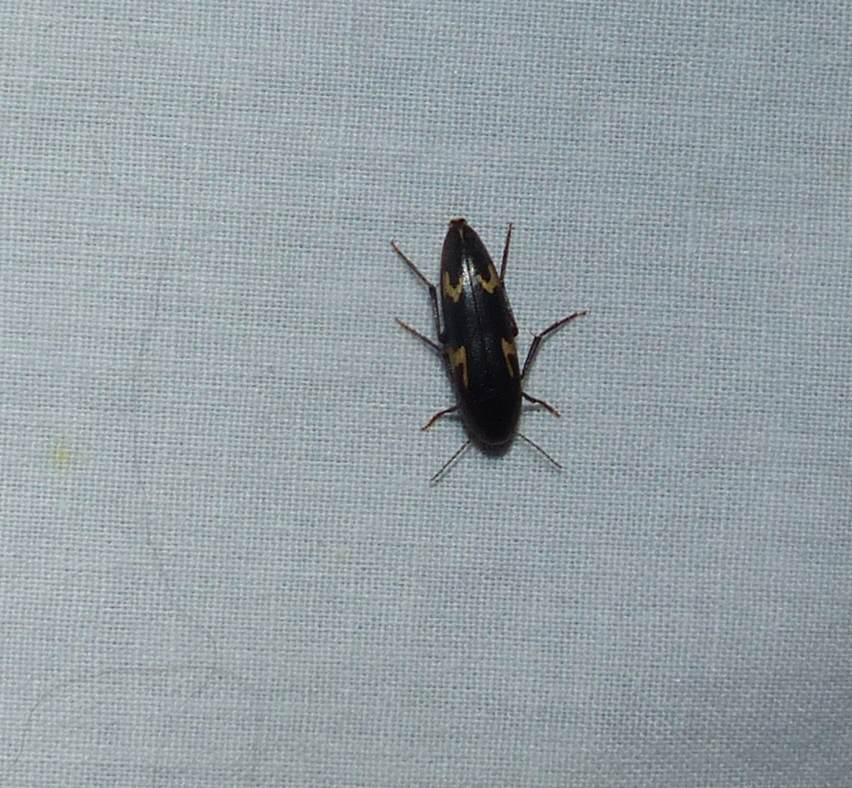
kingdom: Animalia
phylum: Arthropoda
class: Insecta
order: Coleoptera
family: Melandryidae
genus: Dircaea
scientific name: Dircaea liturata
